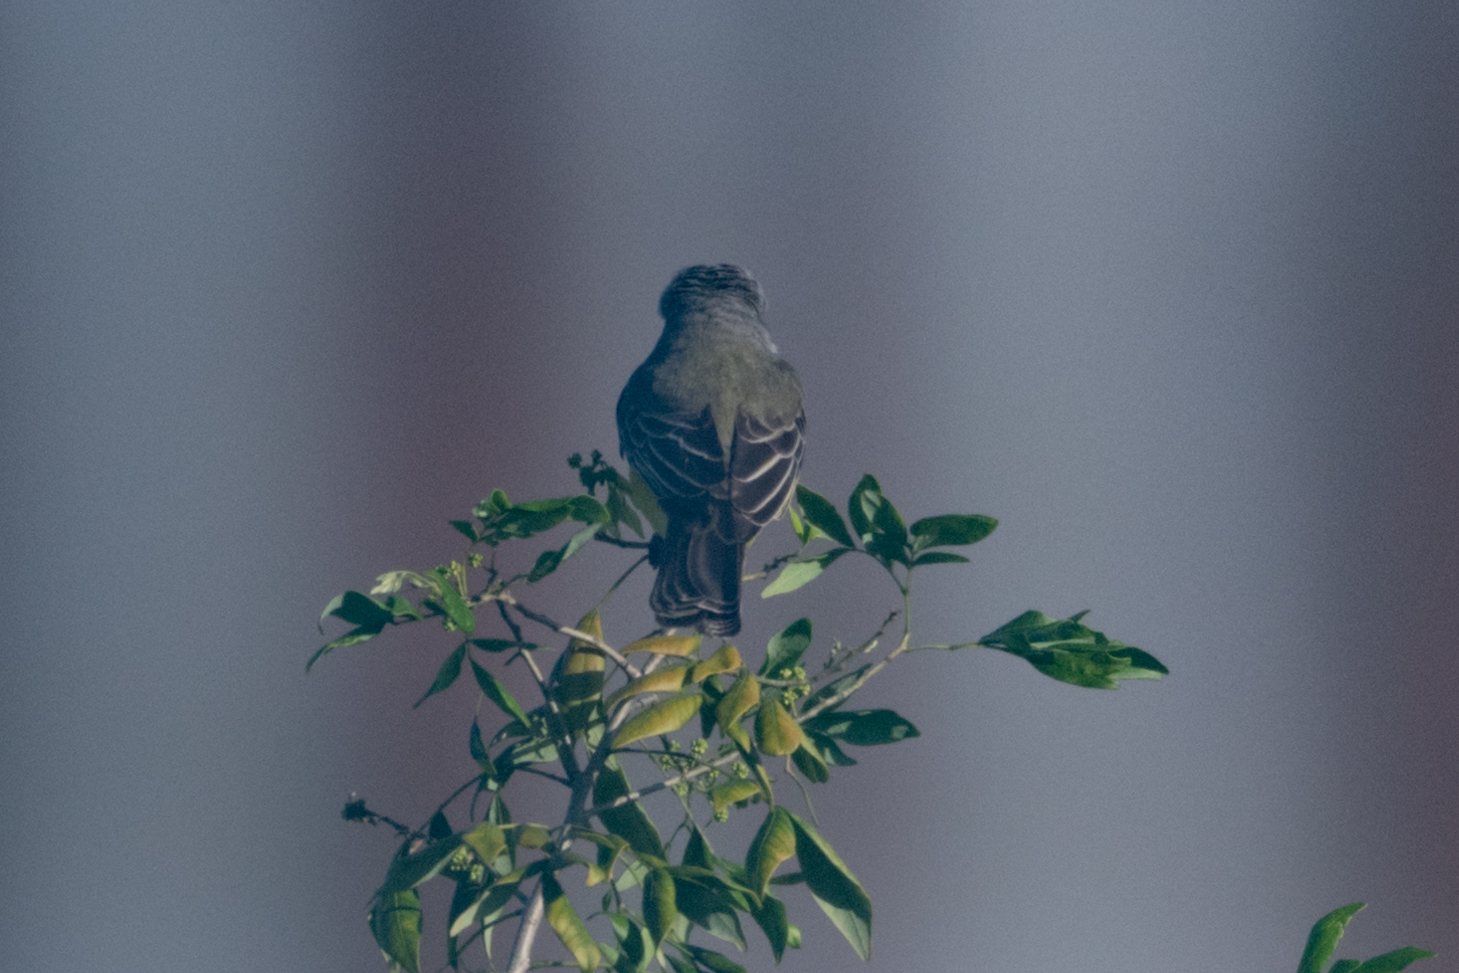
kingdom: Animalia
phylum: Chordata
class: Aves
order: Passeriformes
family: Tyrannidae
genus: Tyrannus
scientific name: Tyrannus melancholicus
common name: Tropical kingbird
